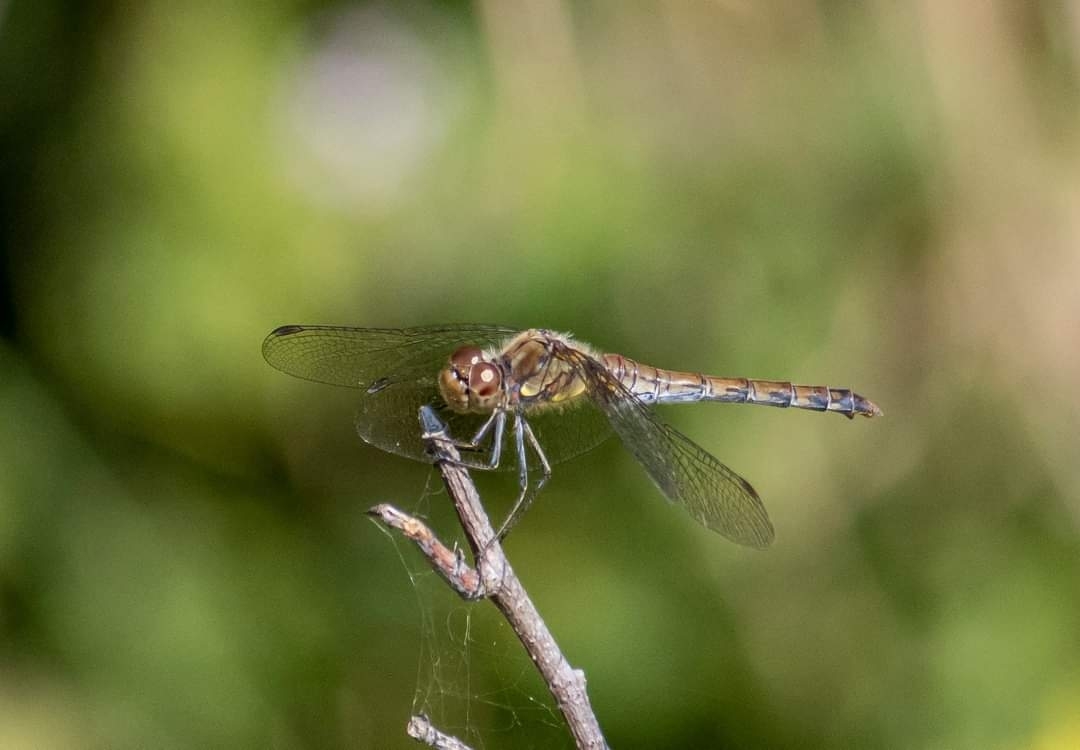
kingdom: Animalia
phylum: Arthropoda
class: Insecta
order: Odonata
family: Libellulidae
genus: Sympetrum
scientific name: Sympetrum striolatum
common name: Common darter
